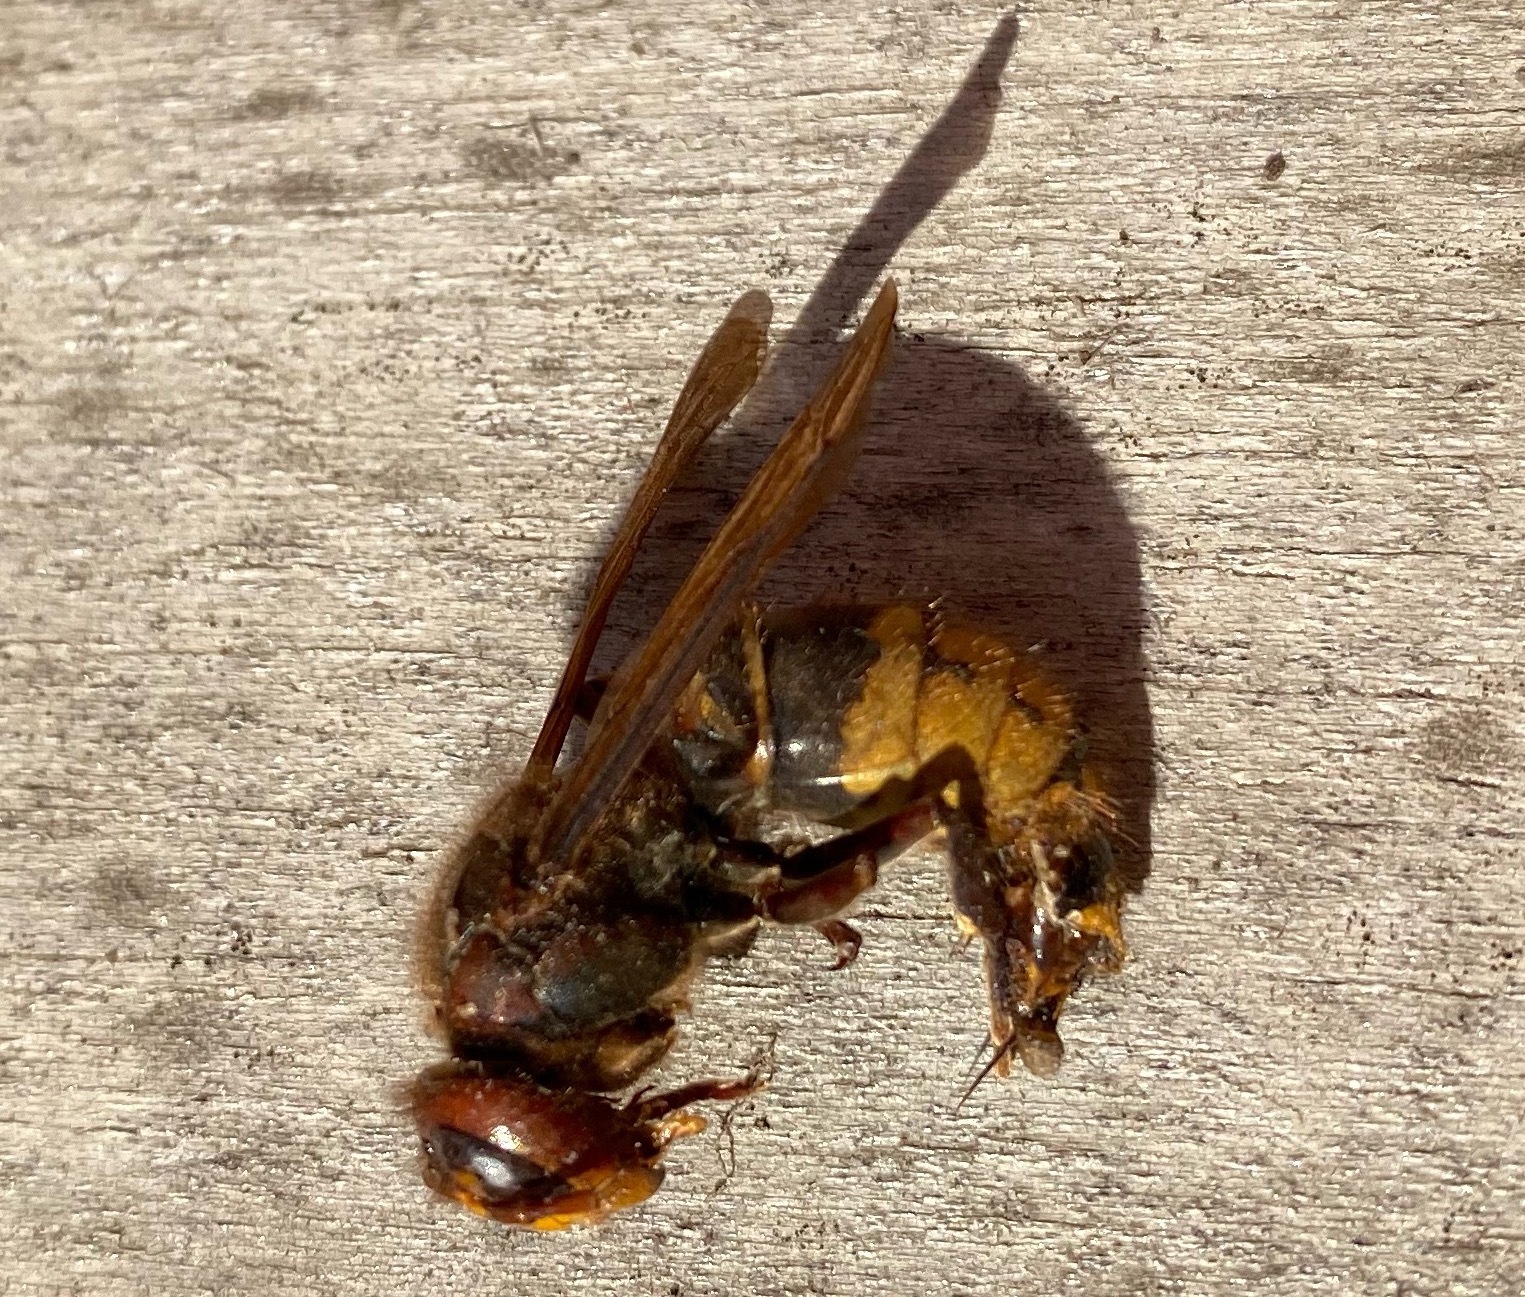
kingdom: Animalia
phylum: Arthropoda
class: Insecta
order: Hymenoptera
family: Vespidae
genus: Vespa
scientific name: Vespa crabro
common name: Hornet
